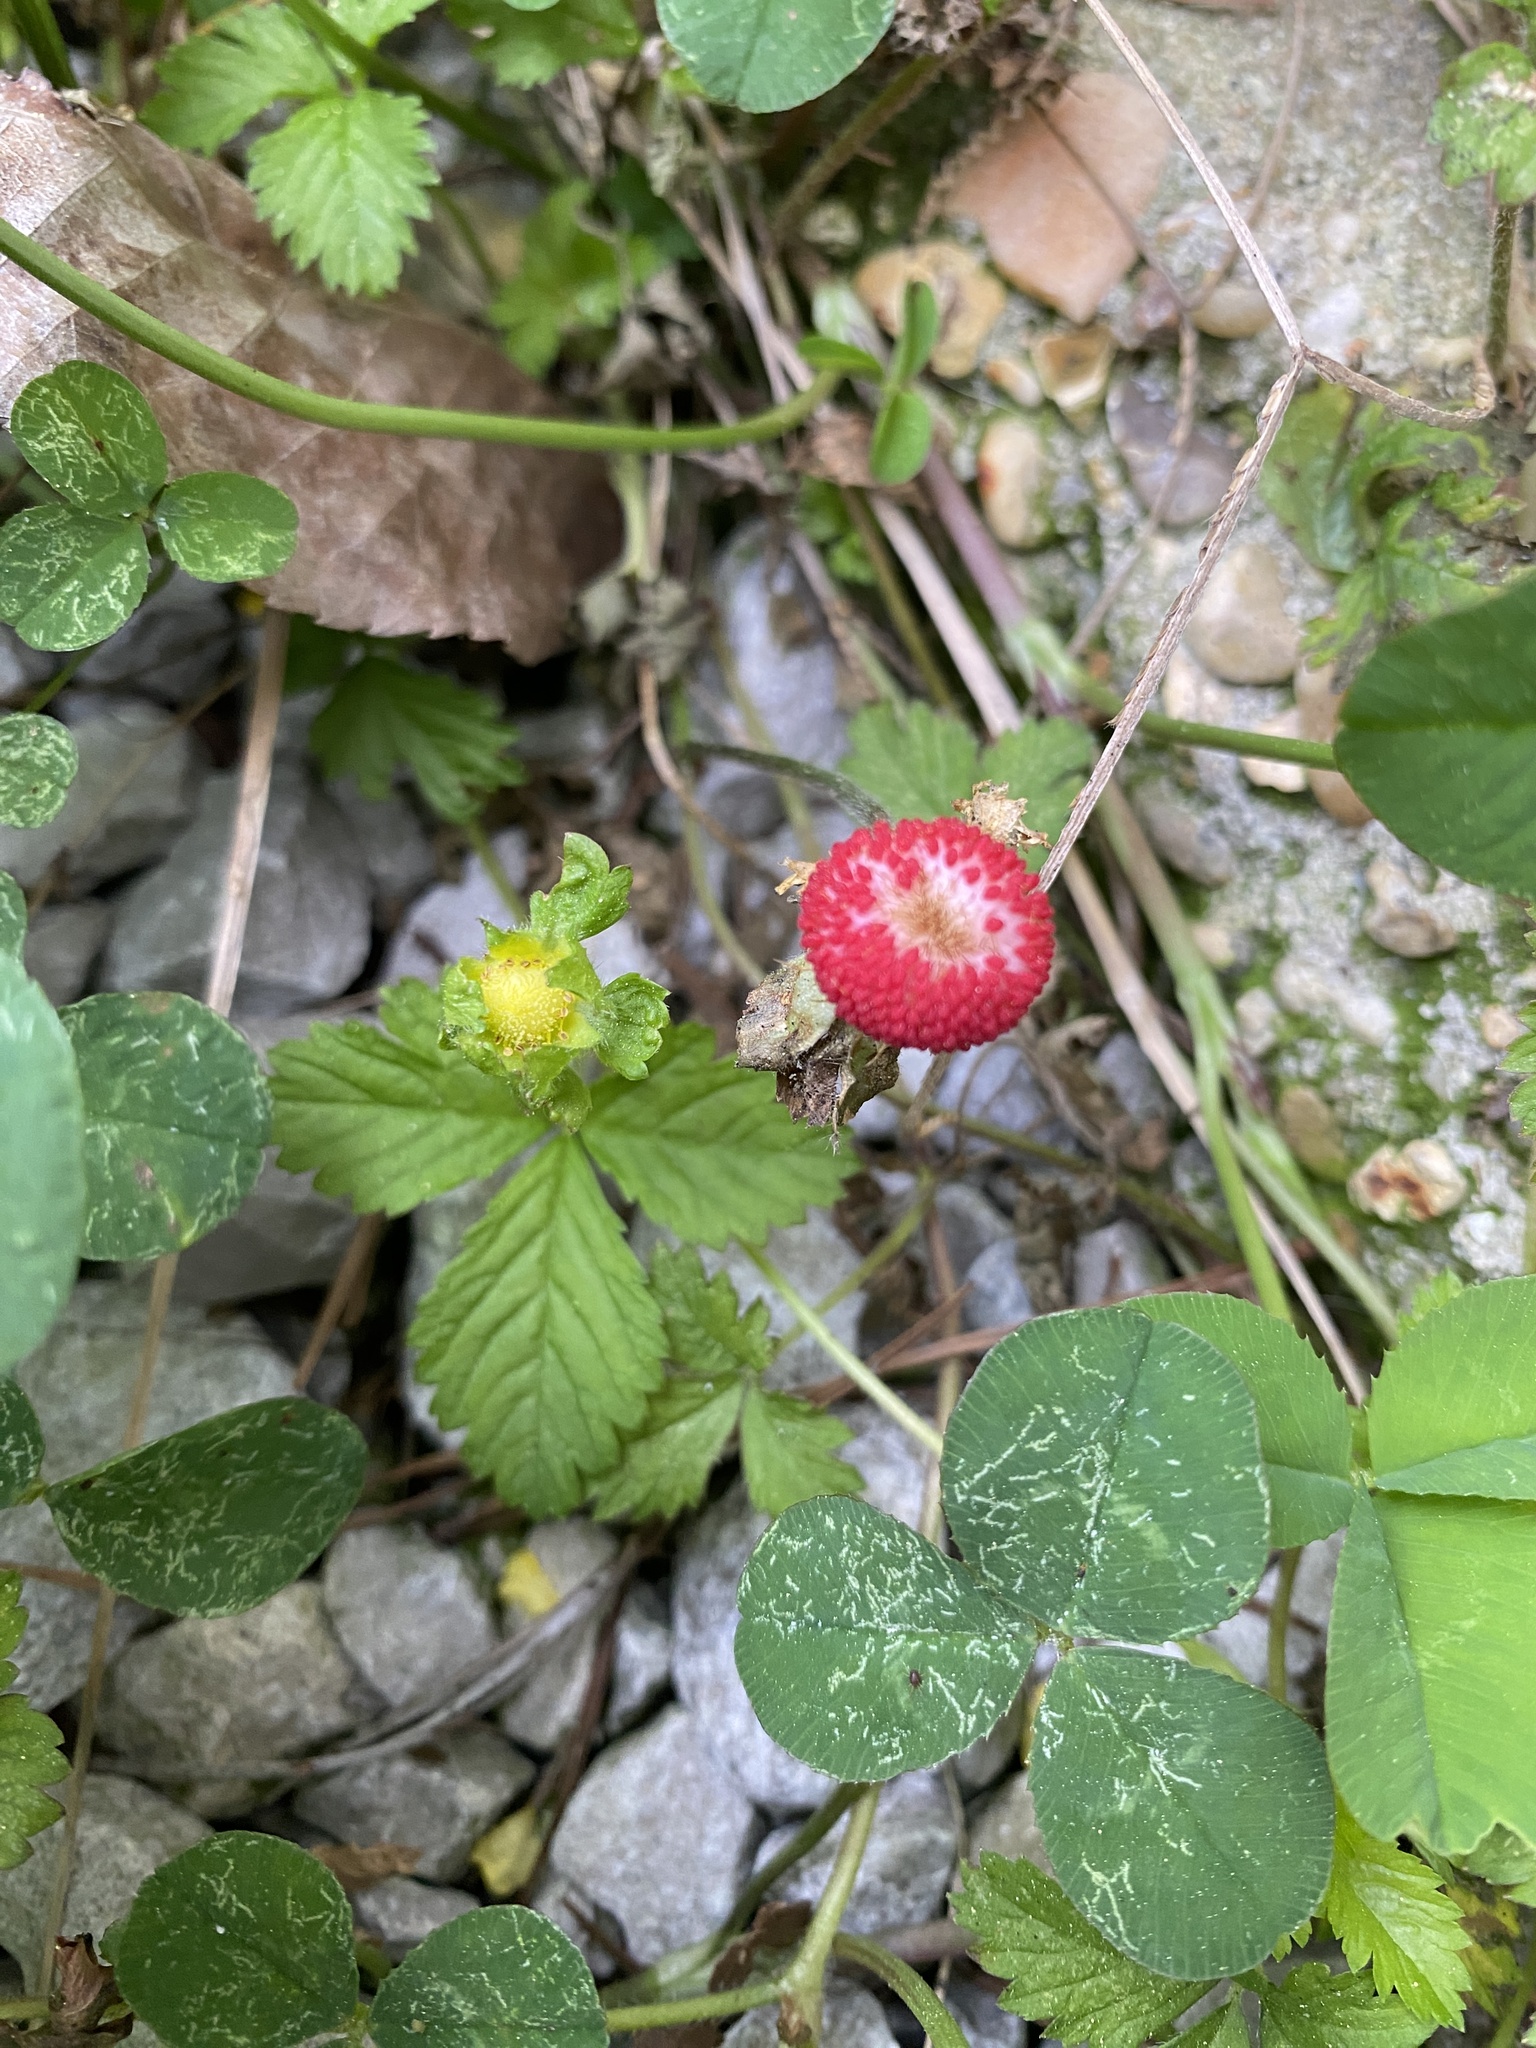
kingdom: Plantae
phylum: Tracheophyta
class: Magnoliopsida
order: Rosales
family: Rosaceae
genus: Potentilla
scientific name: Potentilla indica
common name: Yellow-flowered strawberry
